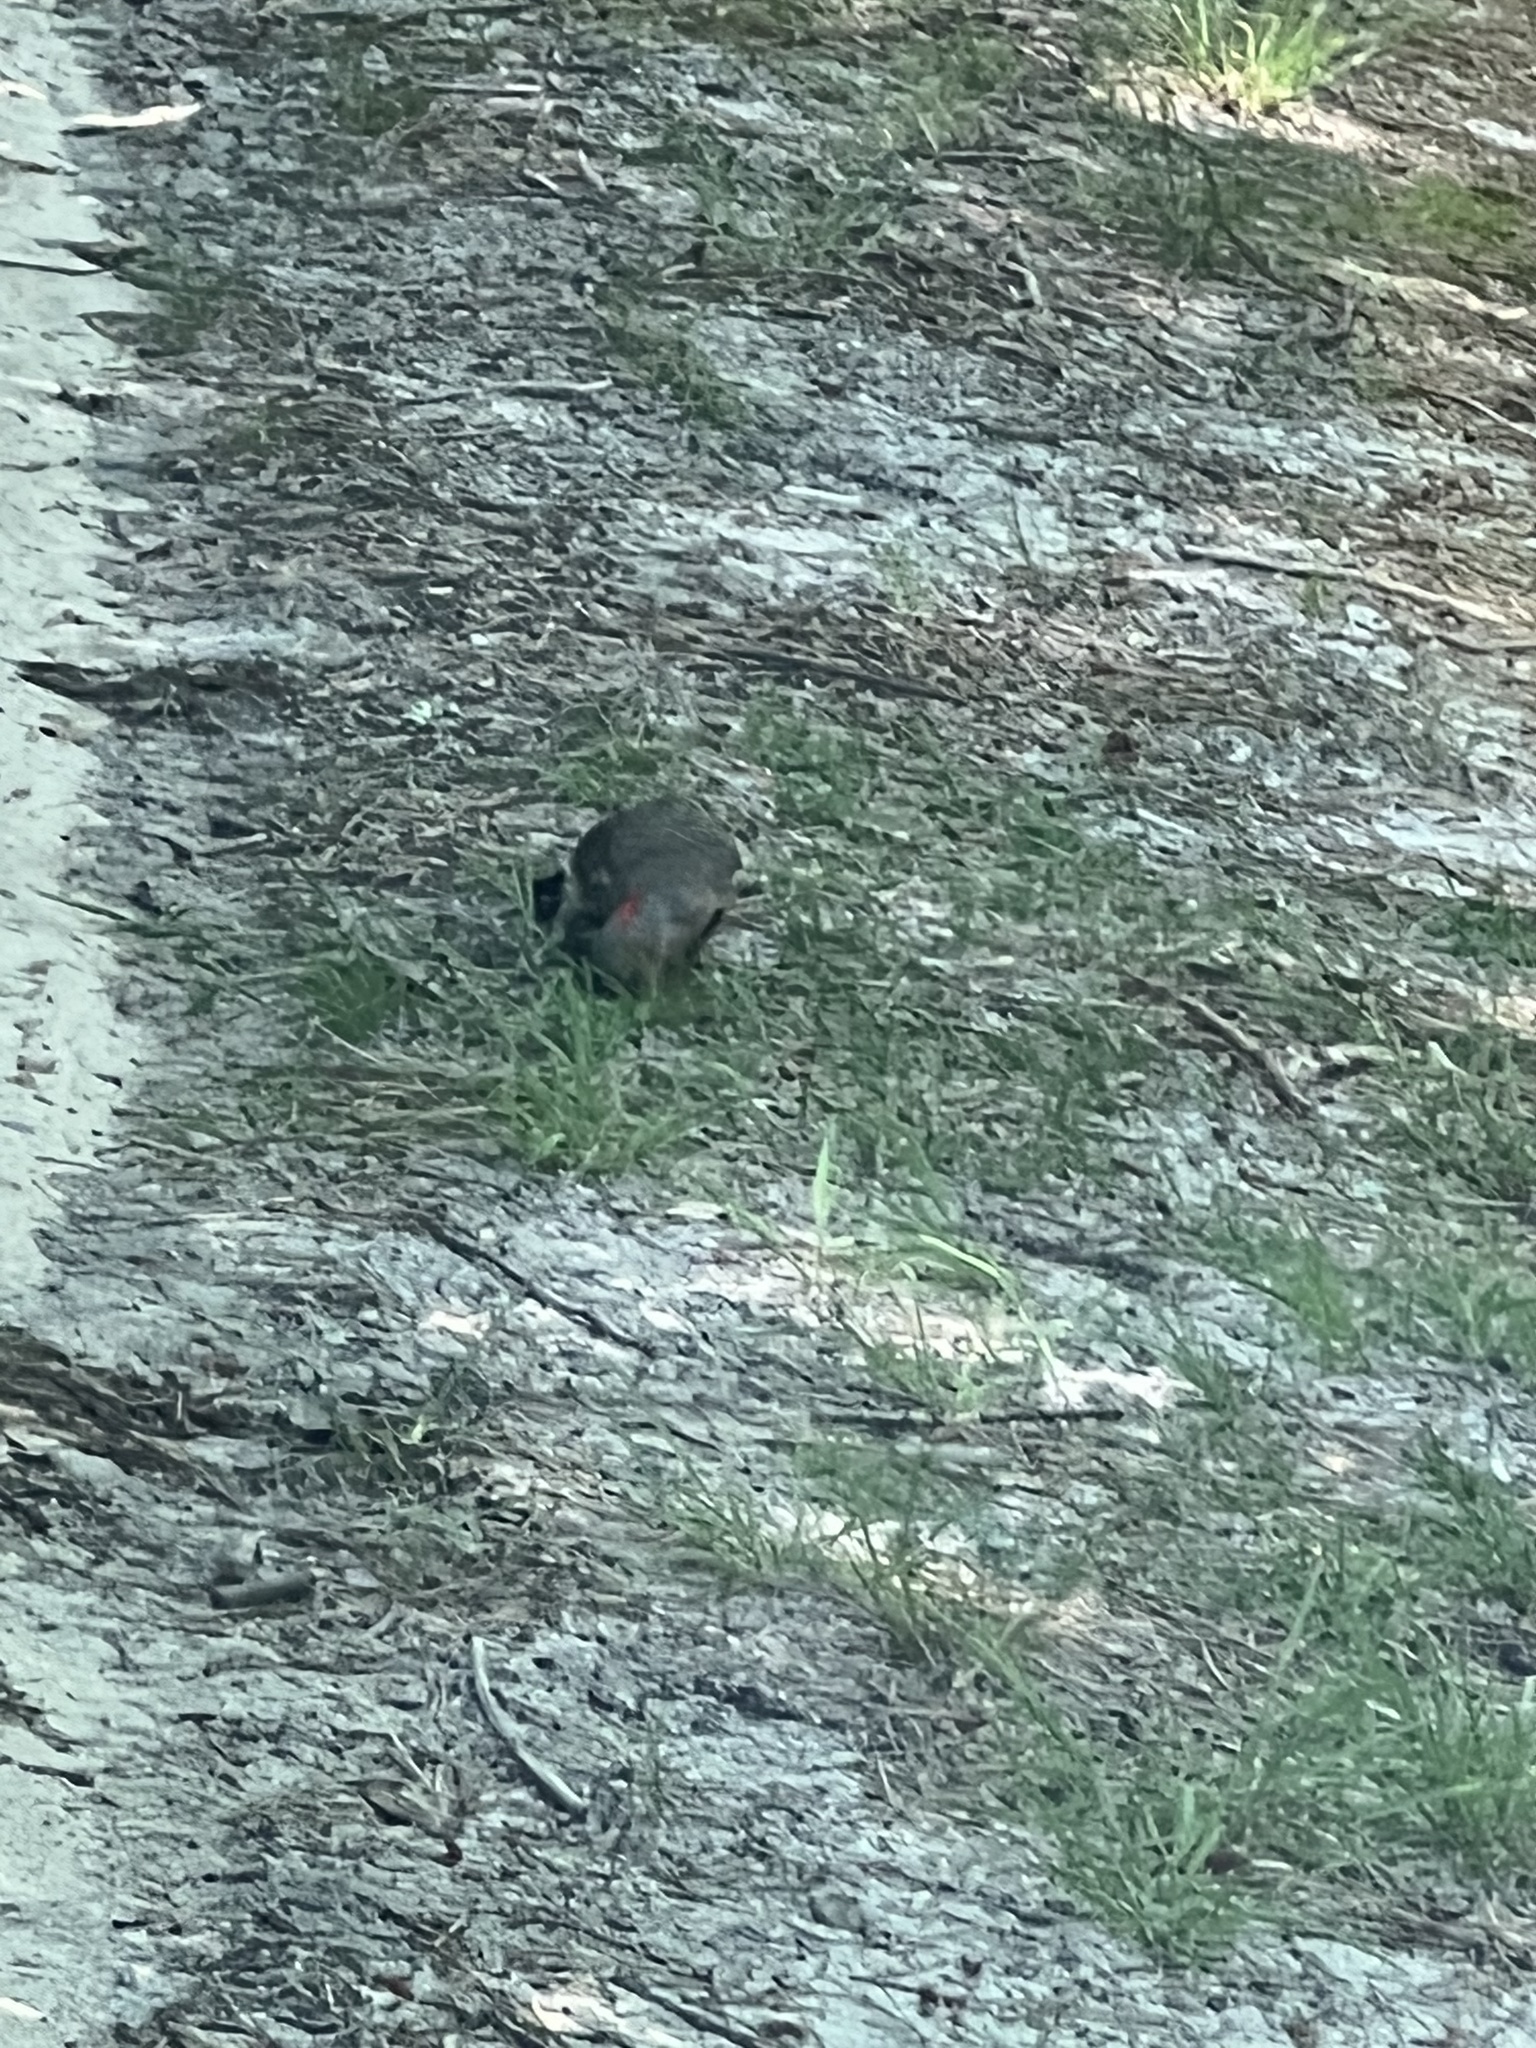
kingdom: Animalia
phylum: Chordata
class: Aves
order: Piciformes
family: Picidae
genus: Colaptes
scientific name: Colaptes auratus
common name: Northern flicker
